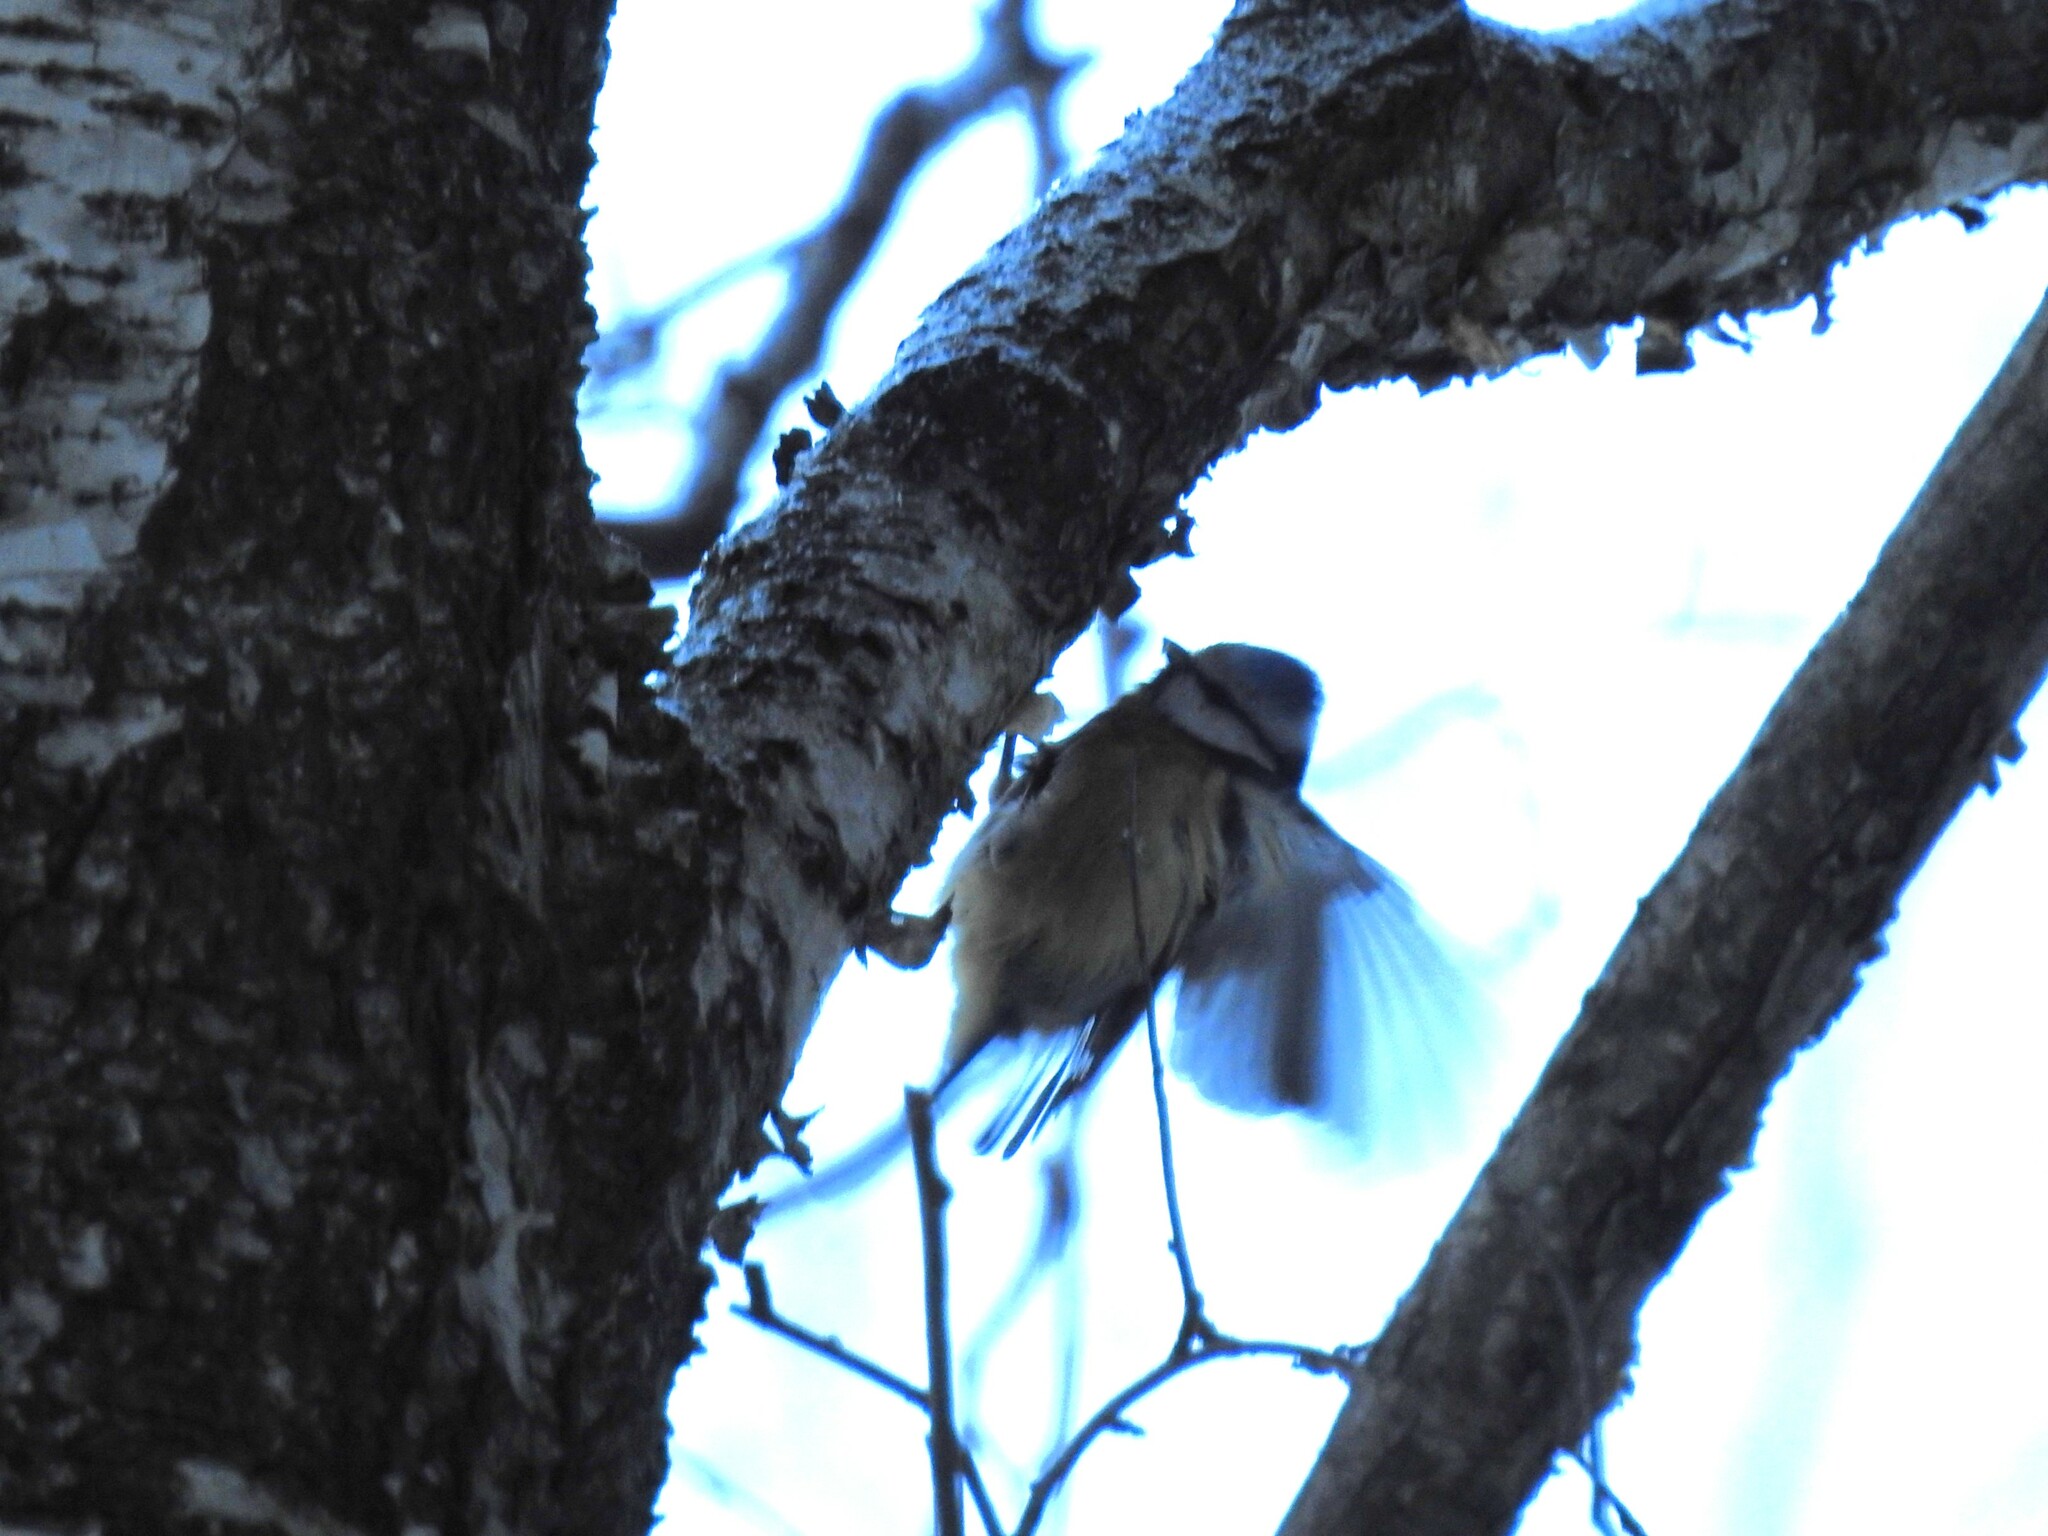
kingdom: Animalia
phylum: Chordata
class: Aves
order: Passeriformes
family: Paridae
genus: Cyanistes
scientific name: Cyanistes caeruleus
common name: Eurasian blue tit
